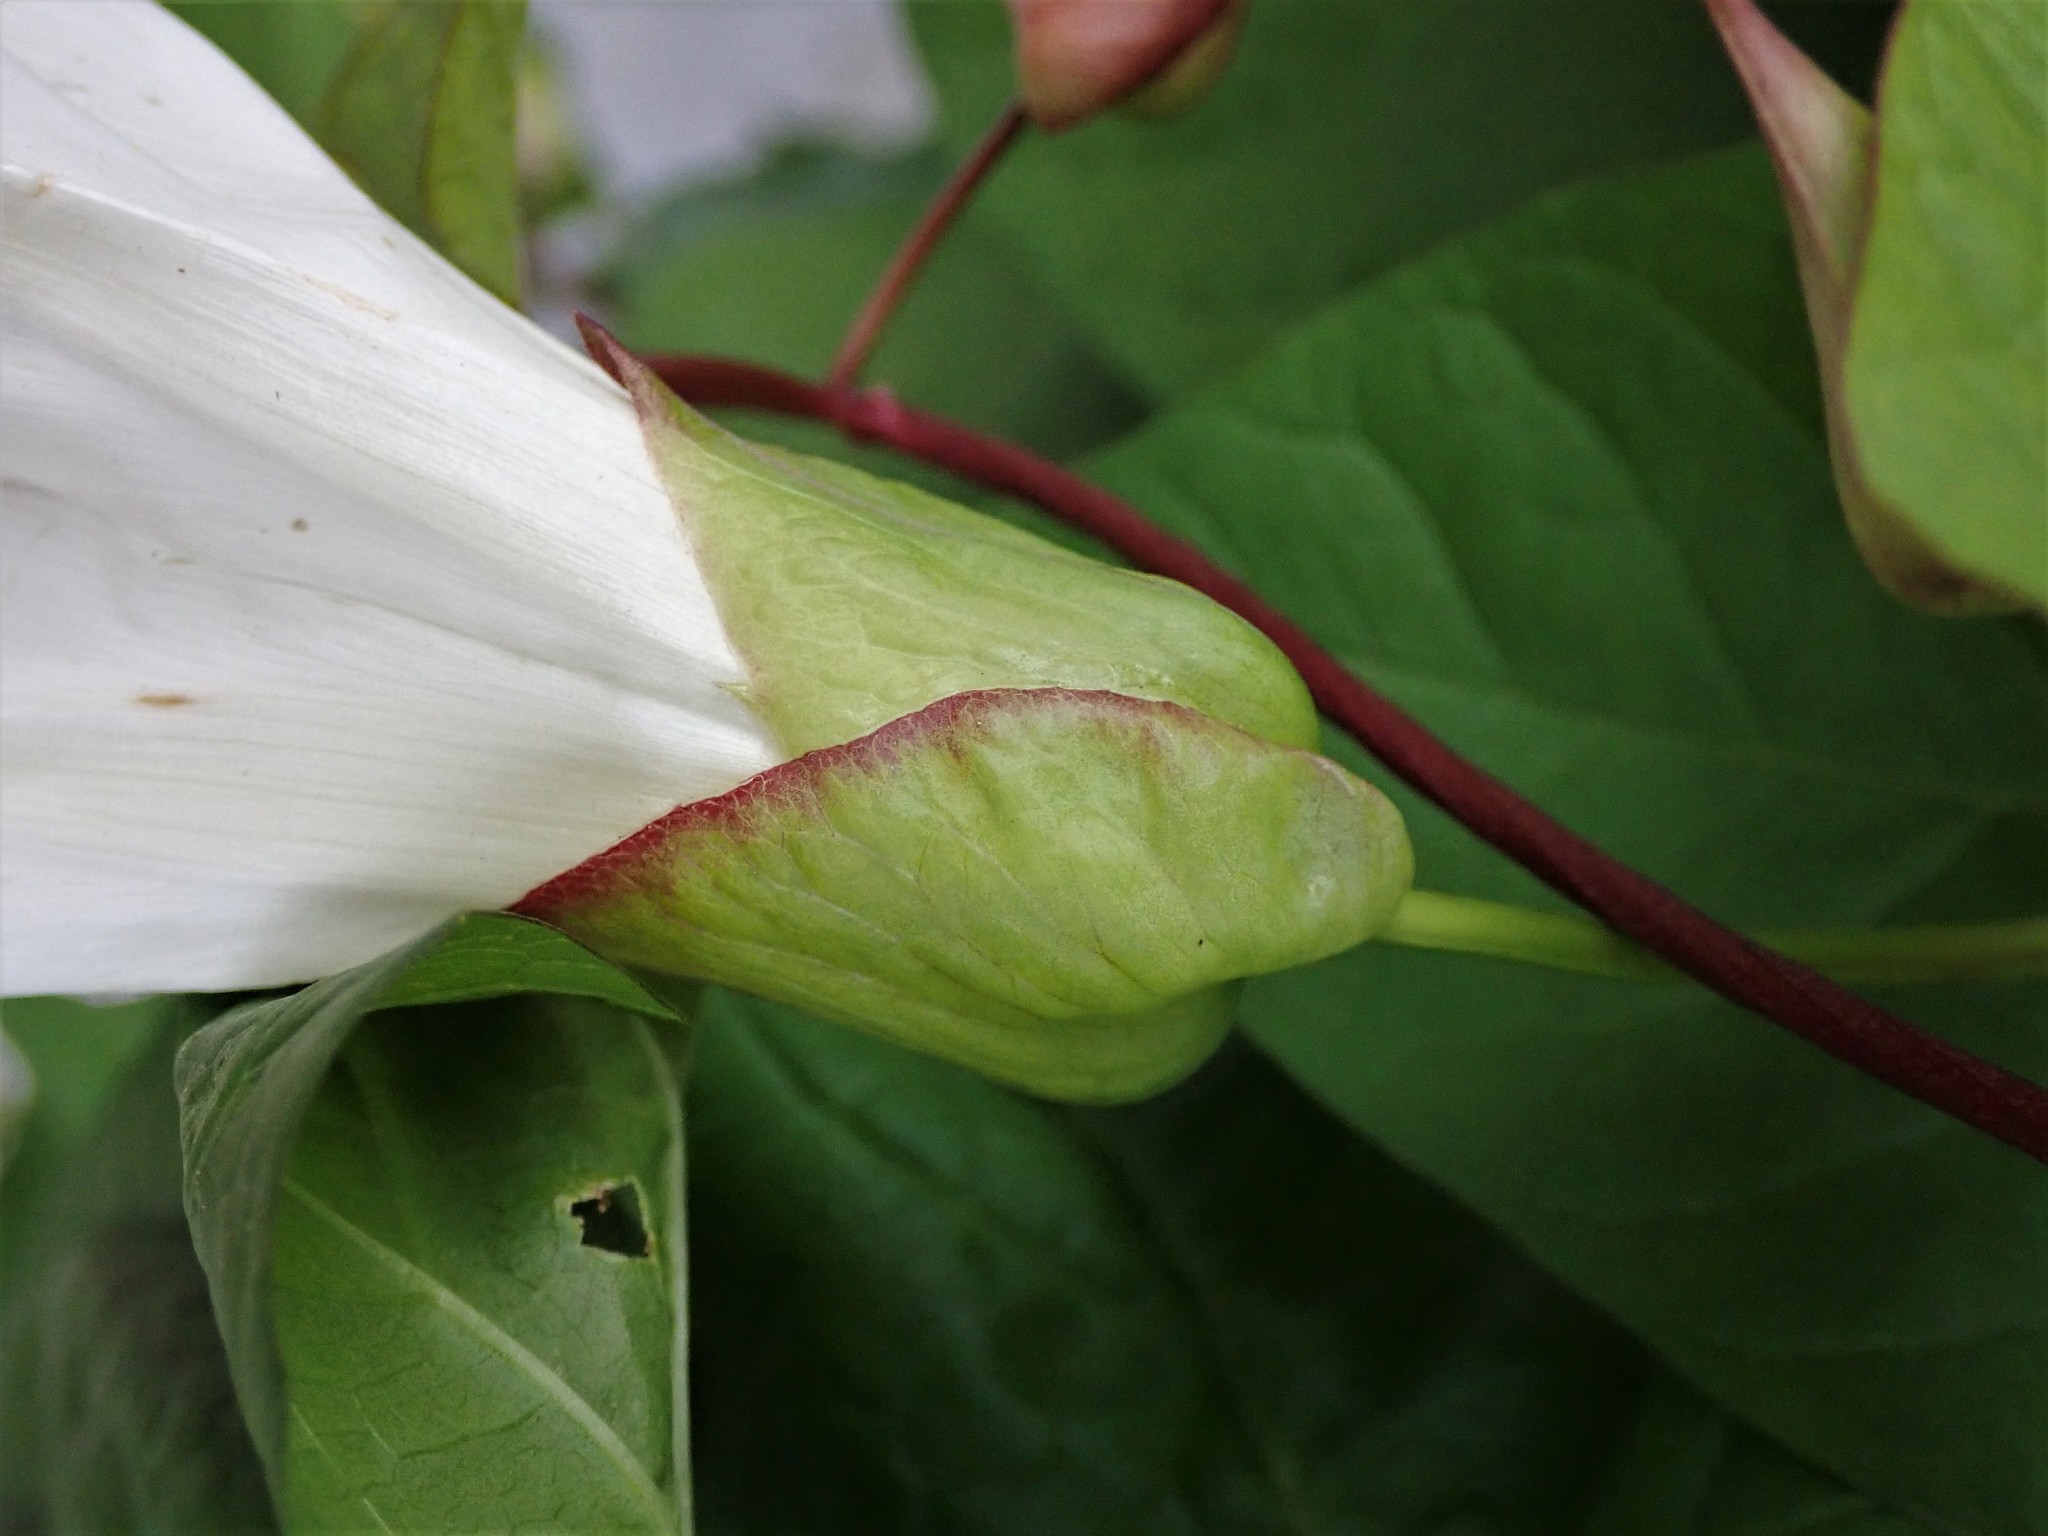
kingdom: Plantae
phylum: Tracheophyta
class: Magnoliopsida
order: Solanales
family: Convolvulaceae
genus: Calystegia
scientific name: Calystegia silvatica
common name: Large bindweed
